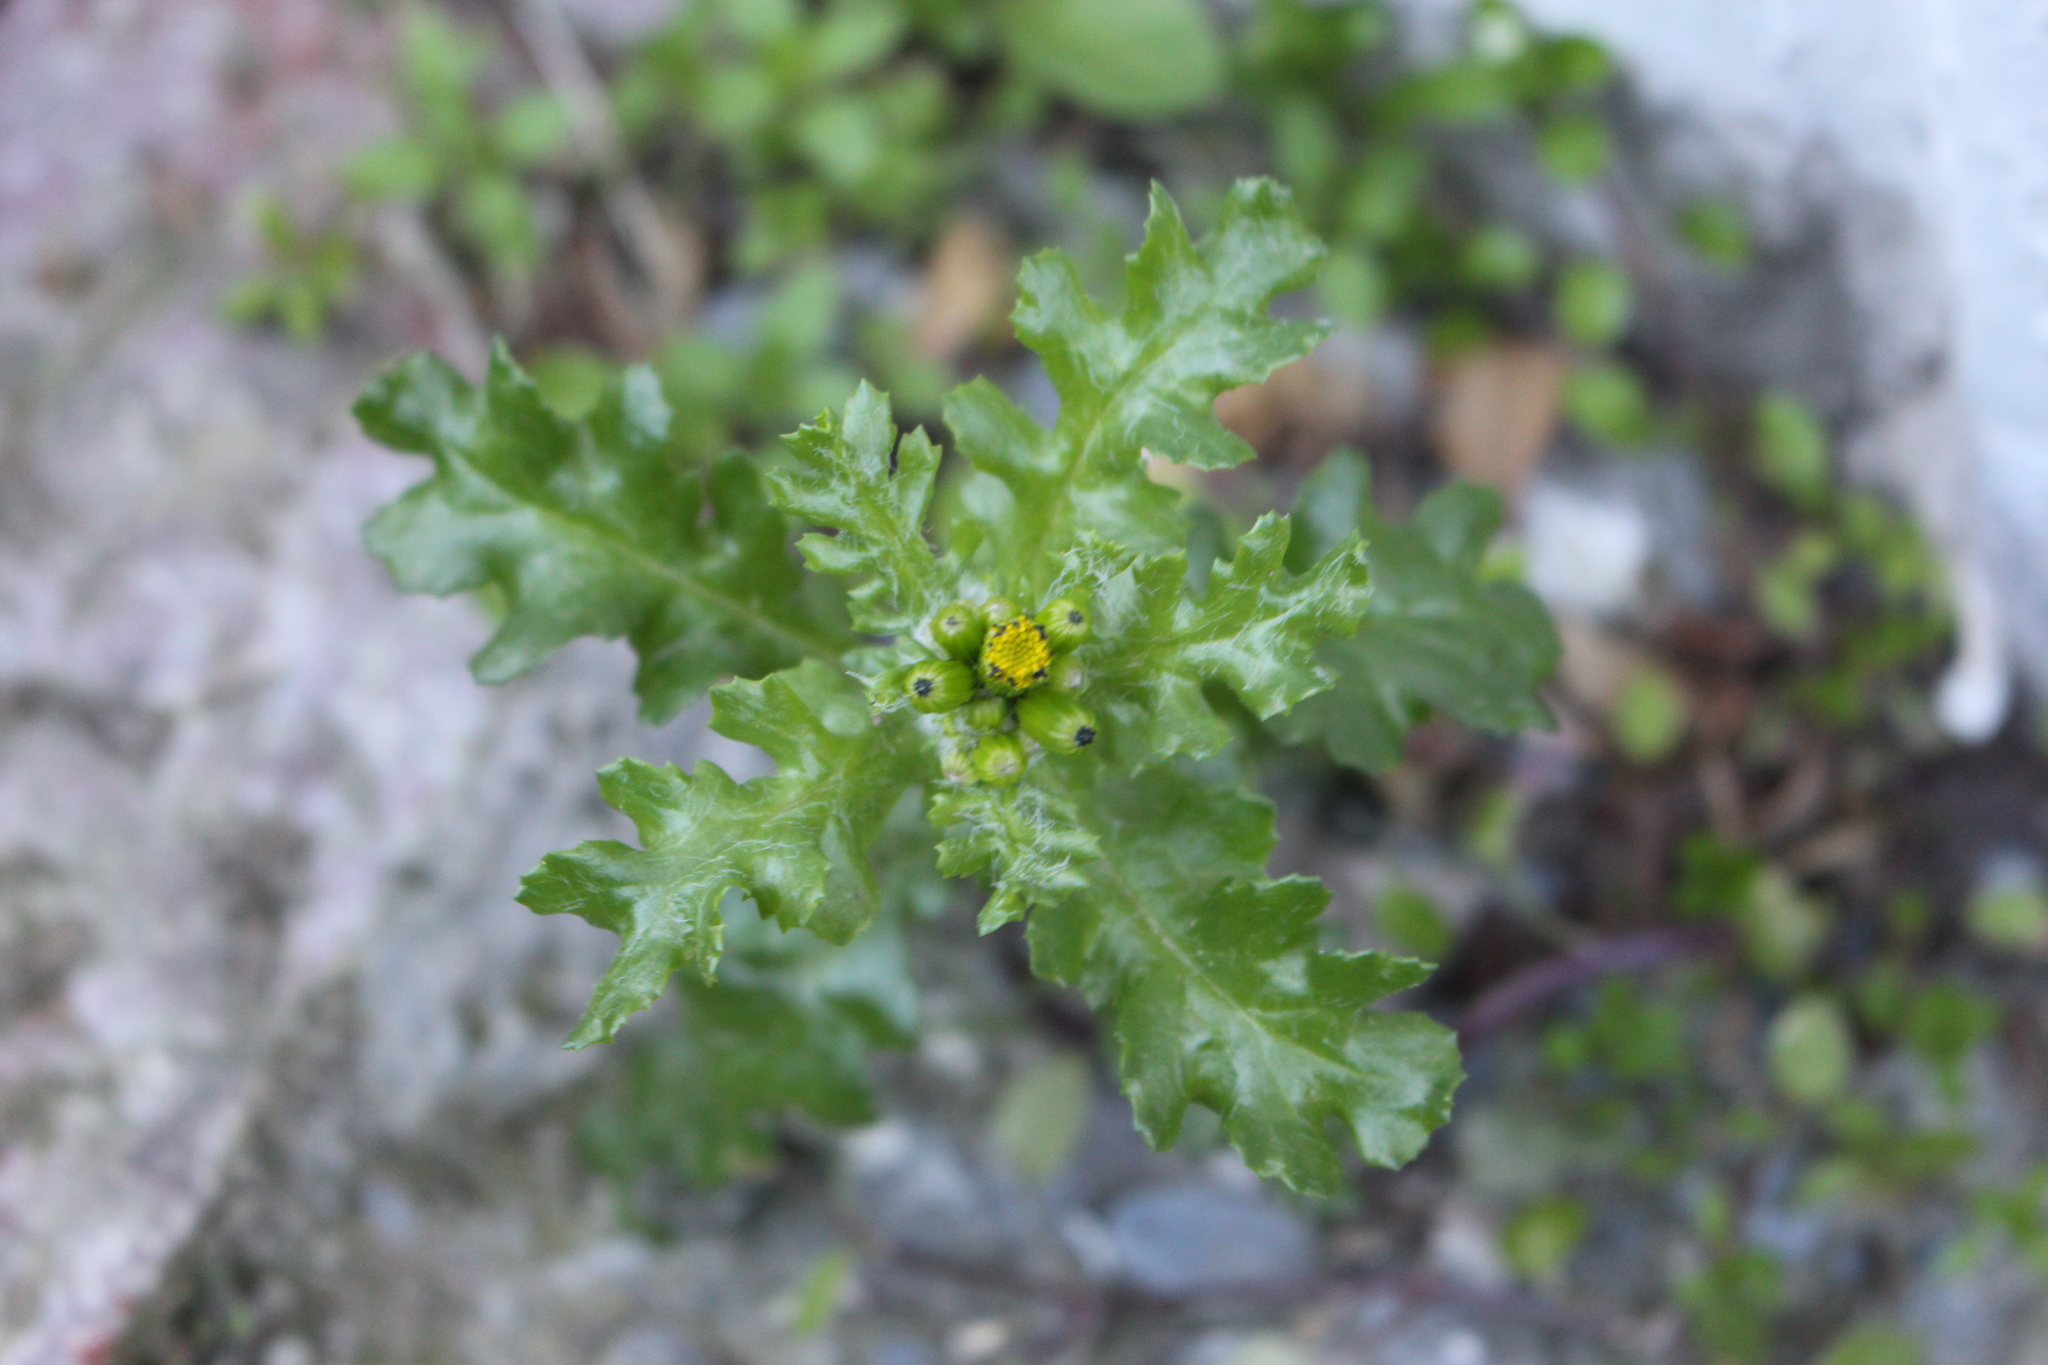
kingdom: Plantae
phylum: Tracheophyta
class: Magnoliopsida
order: Asterales
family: Asteraceae
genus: Senecio
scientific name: Senecio vulgaris
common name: Old-man-in-the-spring
